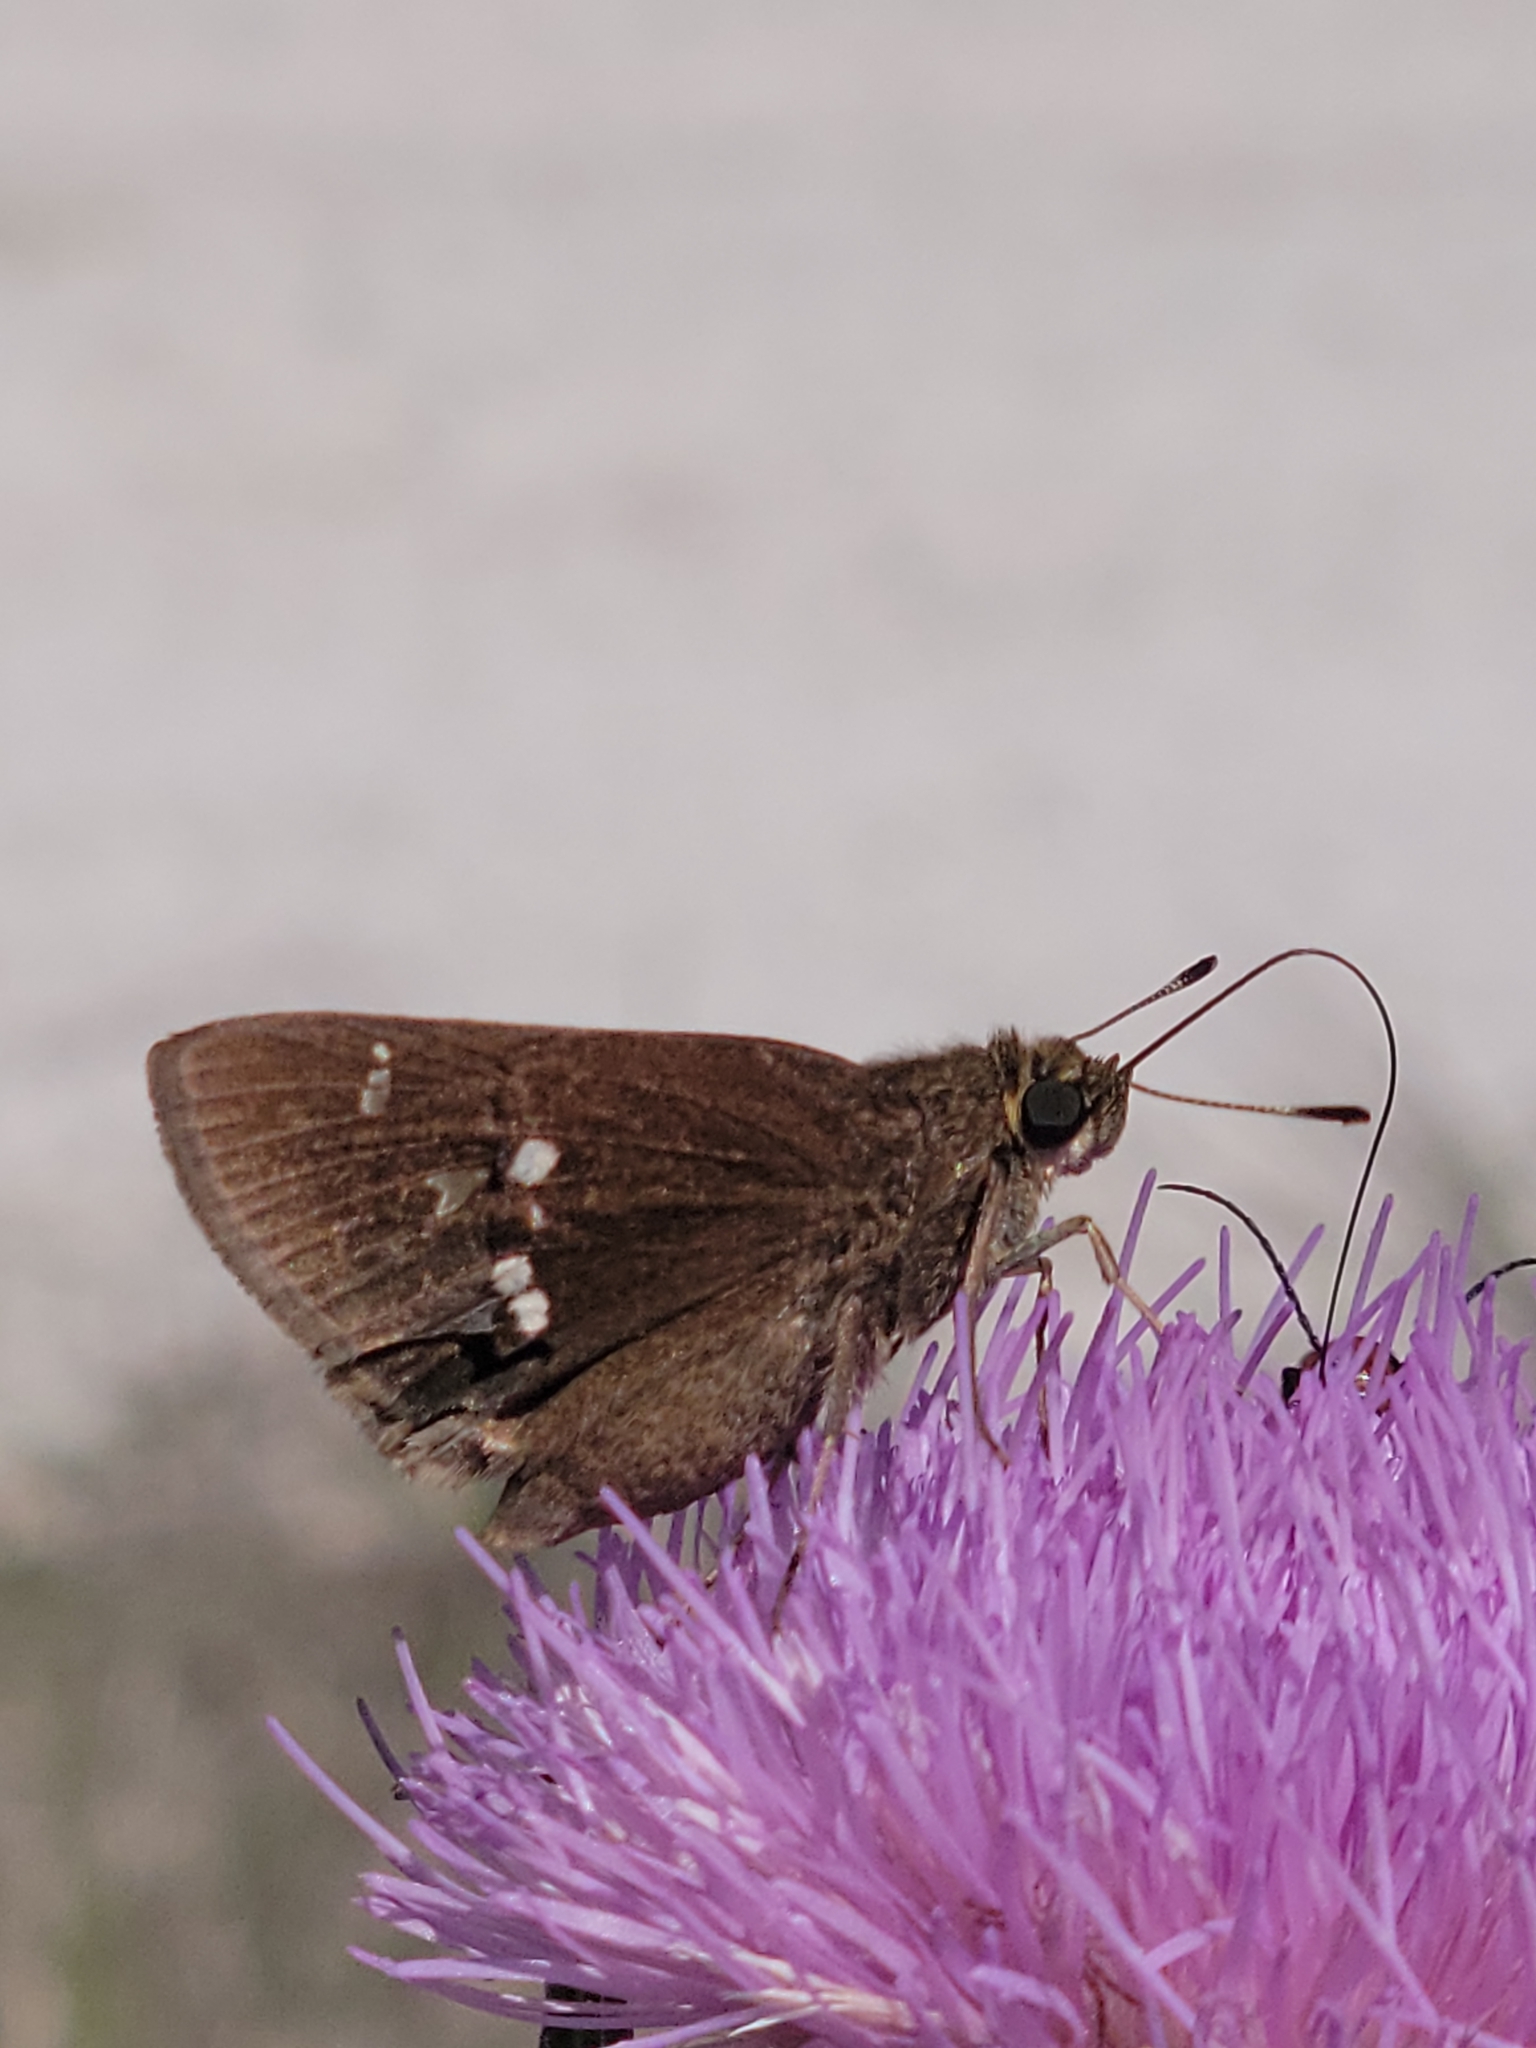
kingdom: Animalia
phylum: Arthropoda
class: Insecta
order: Lepidoptera
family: Hesperiidae
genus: Oligoria
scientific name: Oligoria maculata
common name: Twin-spot skipper
